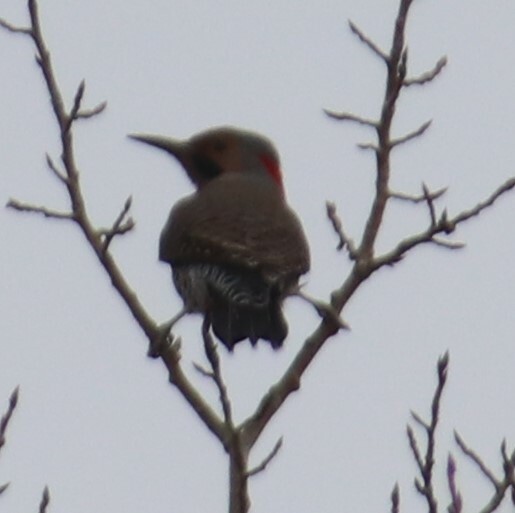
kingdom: Animalia
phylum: Chordata
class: Aves
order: Piciformes
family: Picidae
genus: Colaptes
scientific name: Colaptes auratus
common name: Northern flicker
